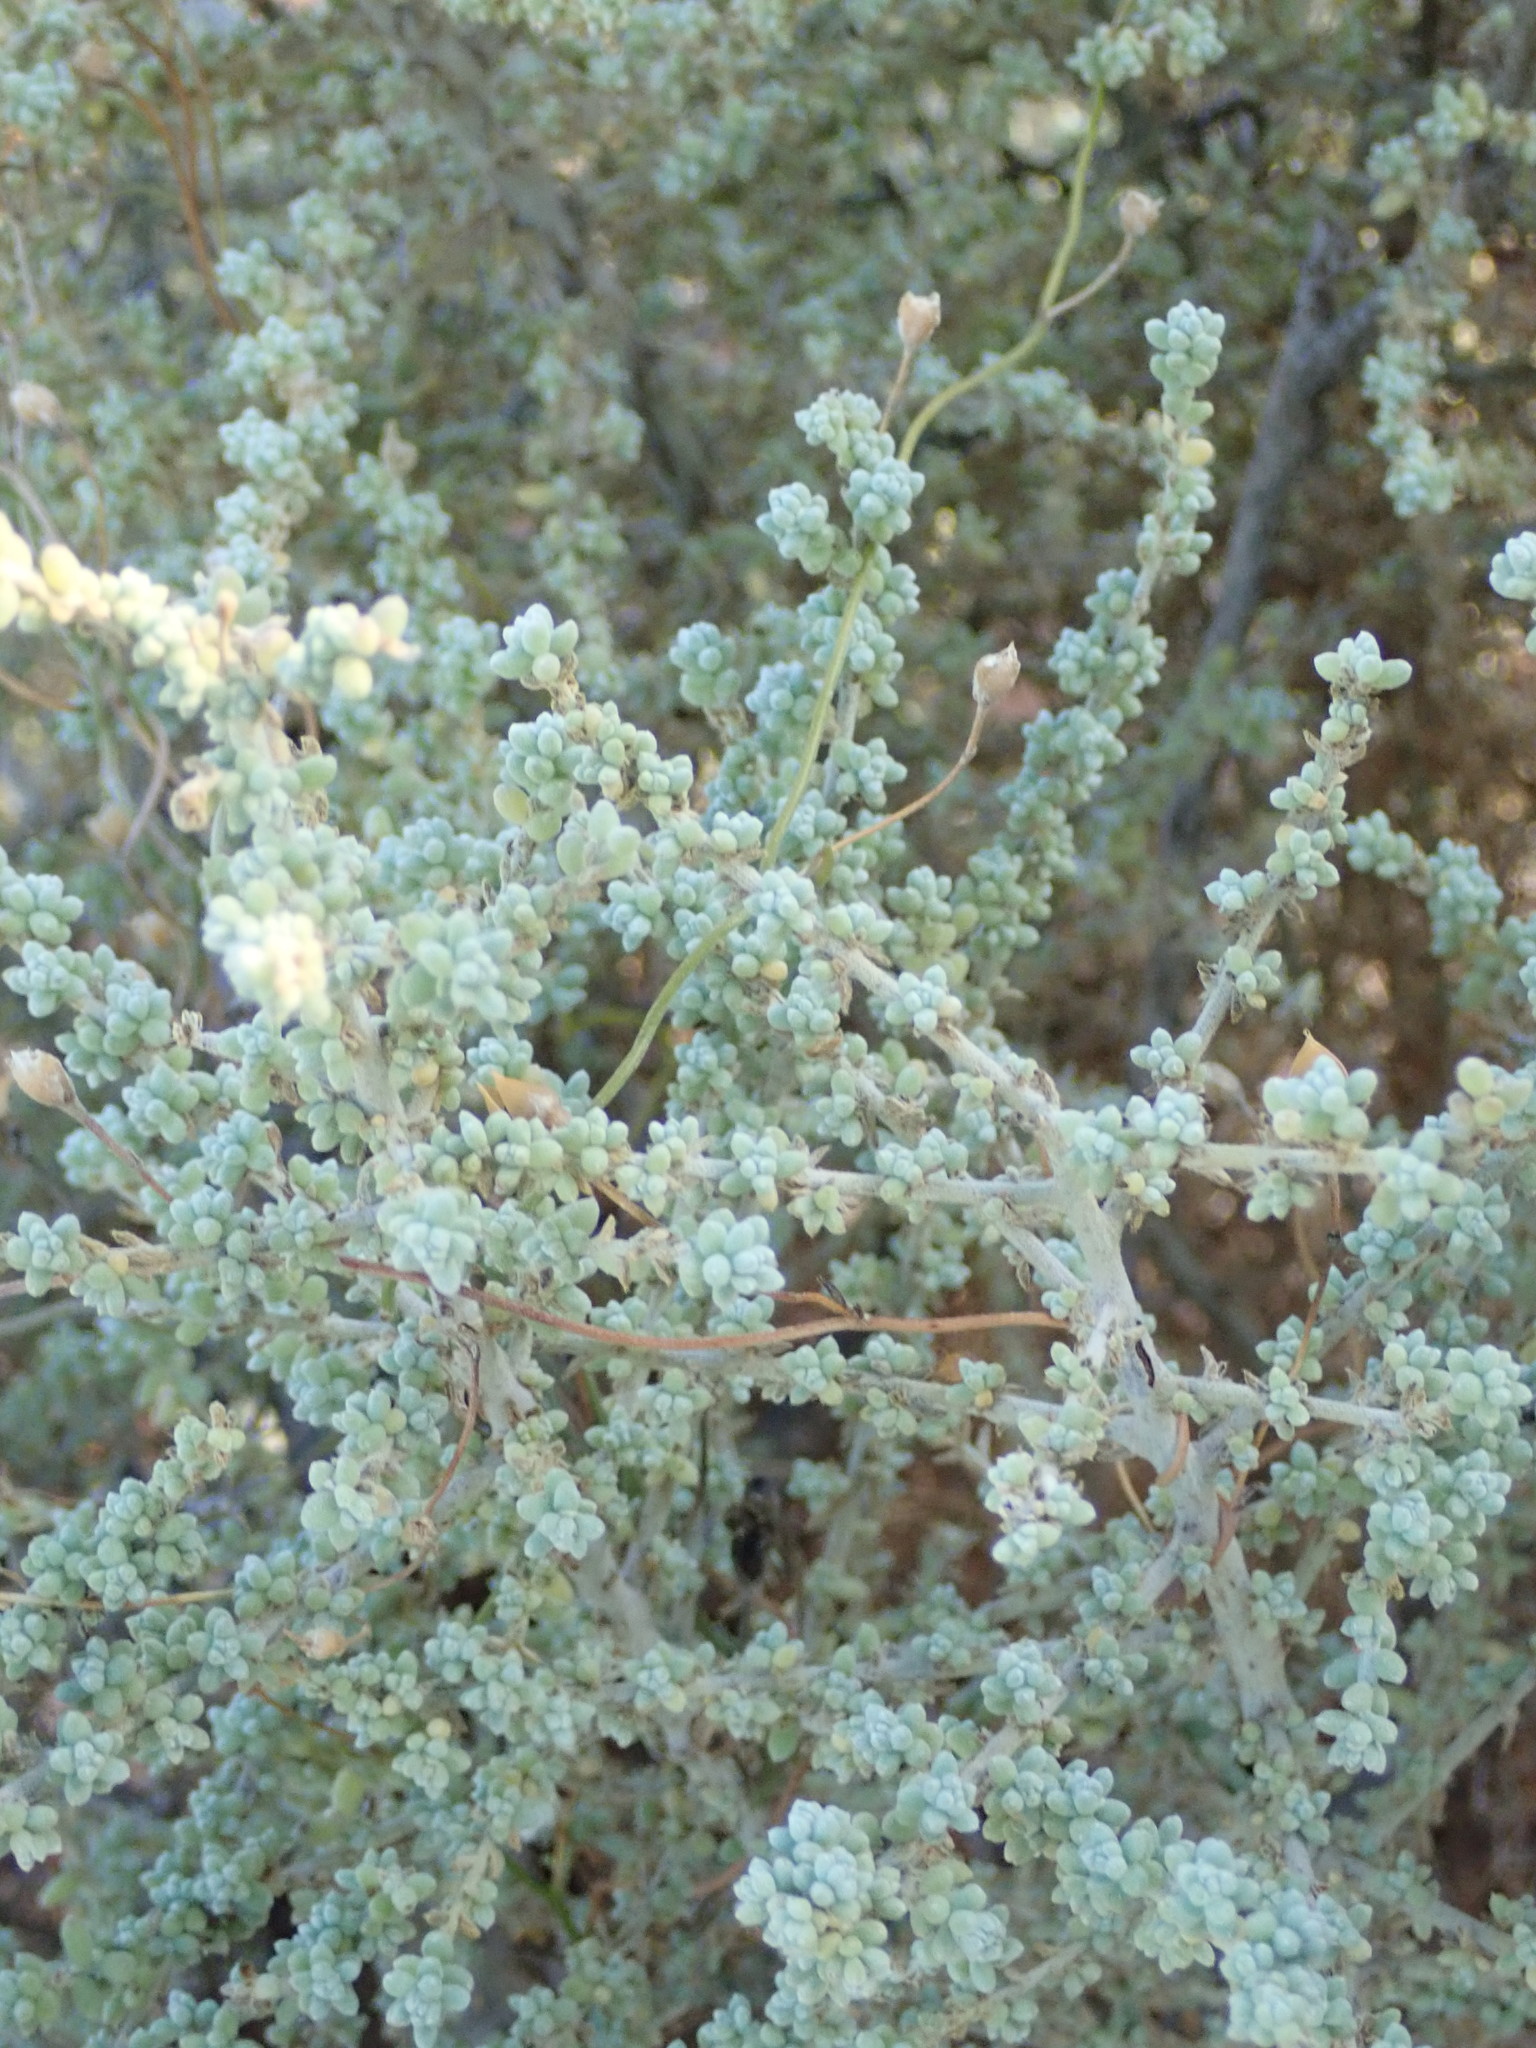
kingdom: Plantae
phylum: Tracheophyta
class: Magnoliopsida
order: Caryophyllales
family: Amaranthaceae
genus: Maireana
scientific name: Maireana sedifolia
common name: Hoary bluebush
